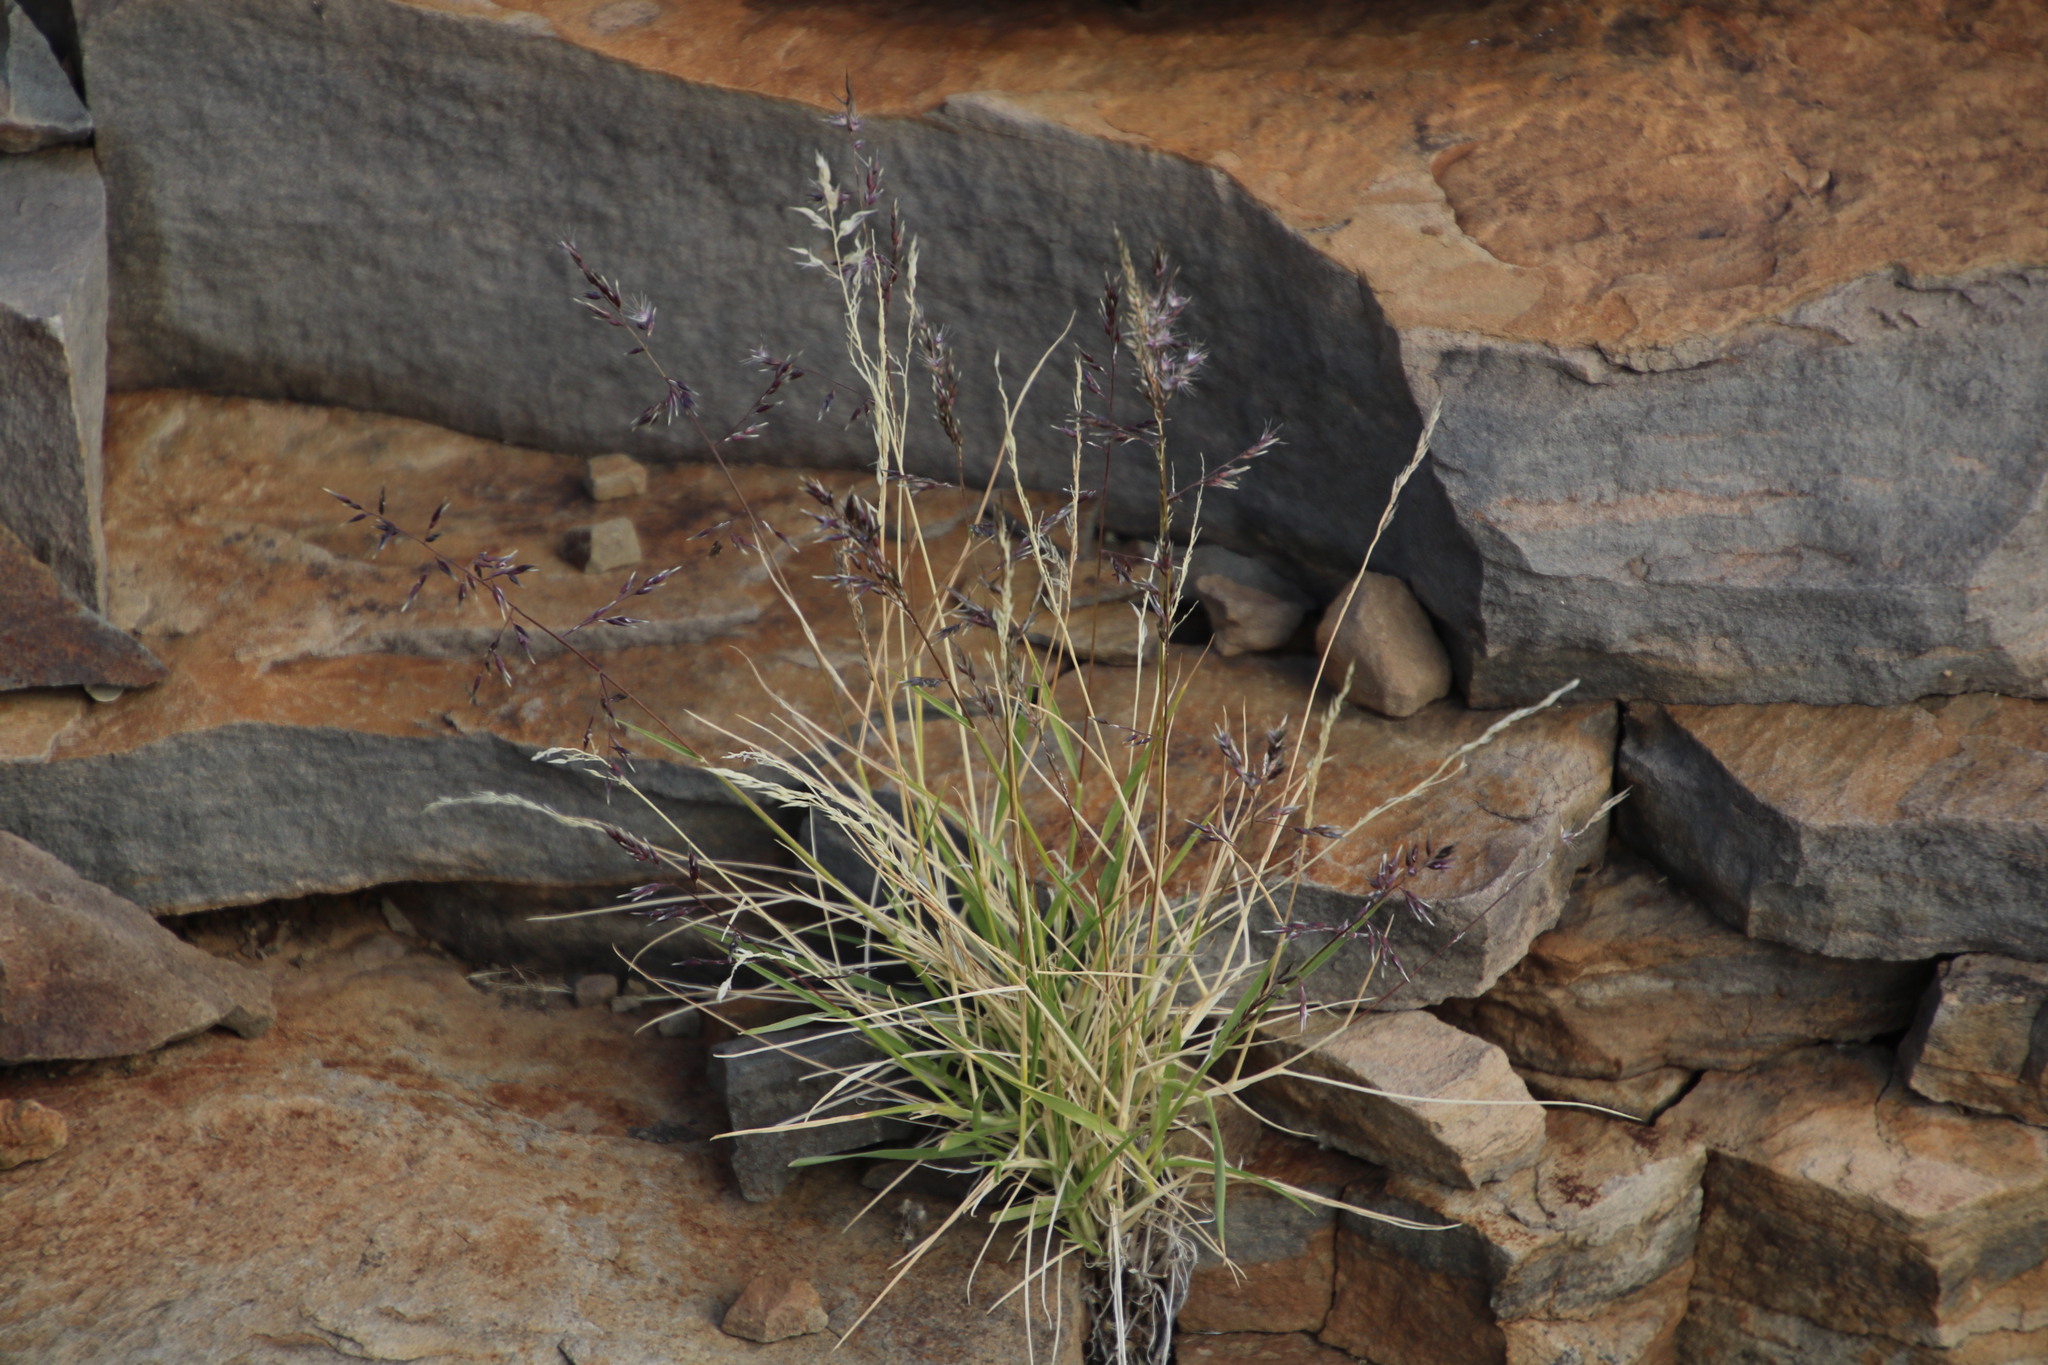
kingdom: Plantae
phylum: Tracheophyta
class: Liliopsida
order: Poales
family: Poaceae
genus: Enneapogon
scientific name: Enneapogon scaber
